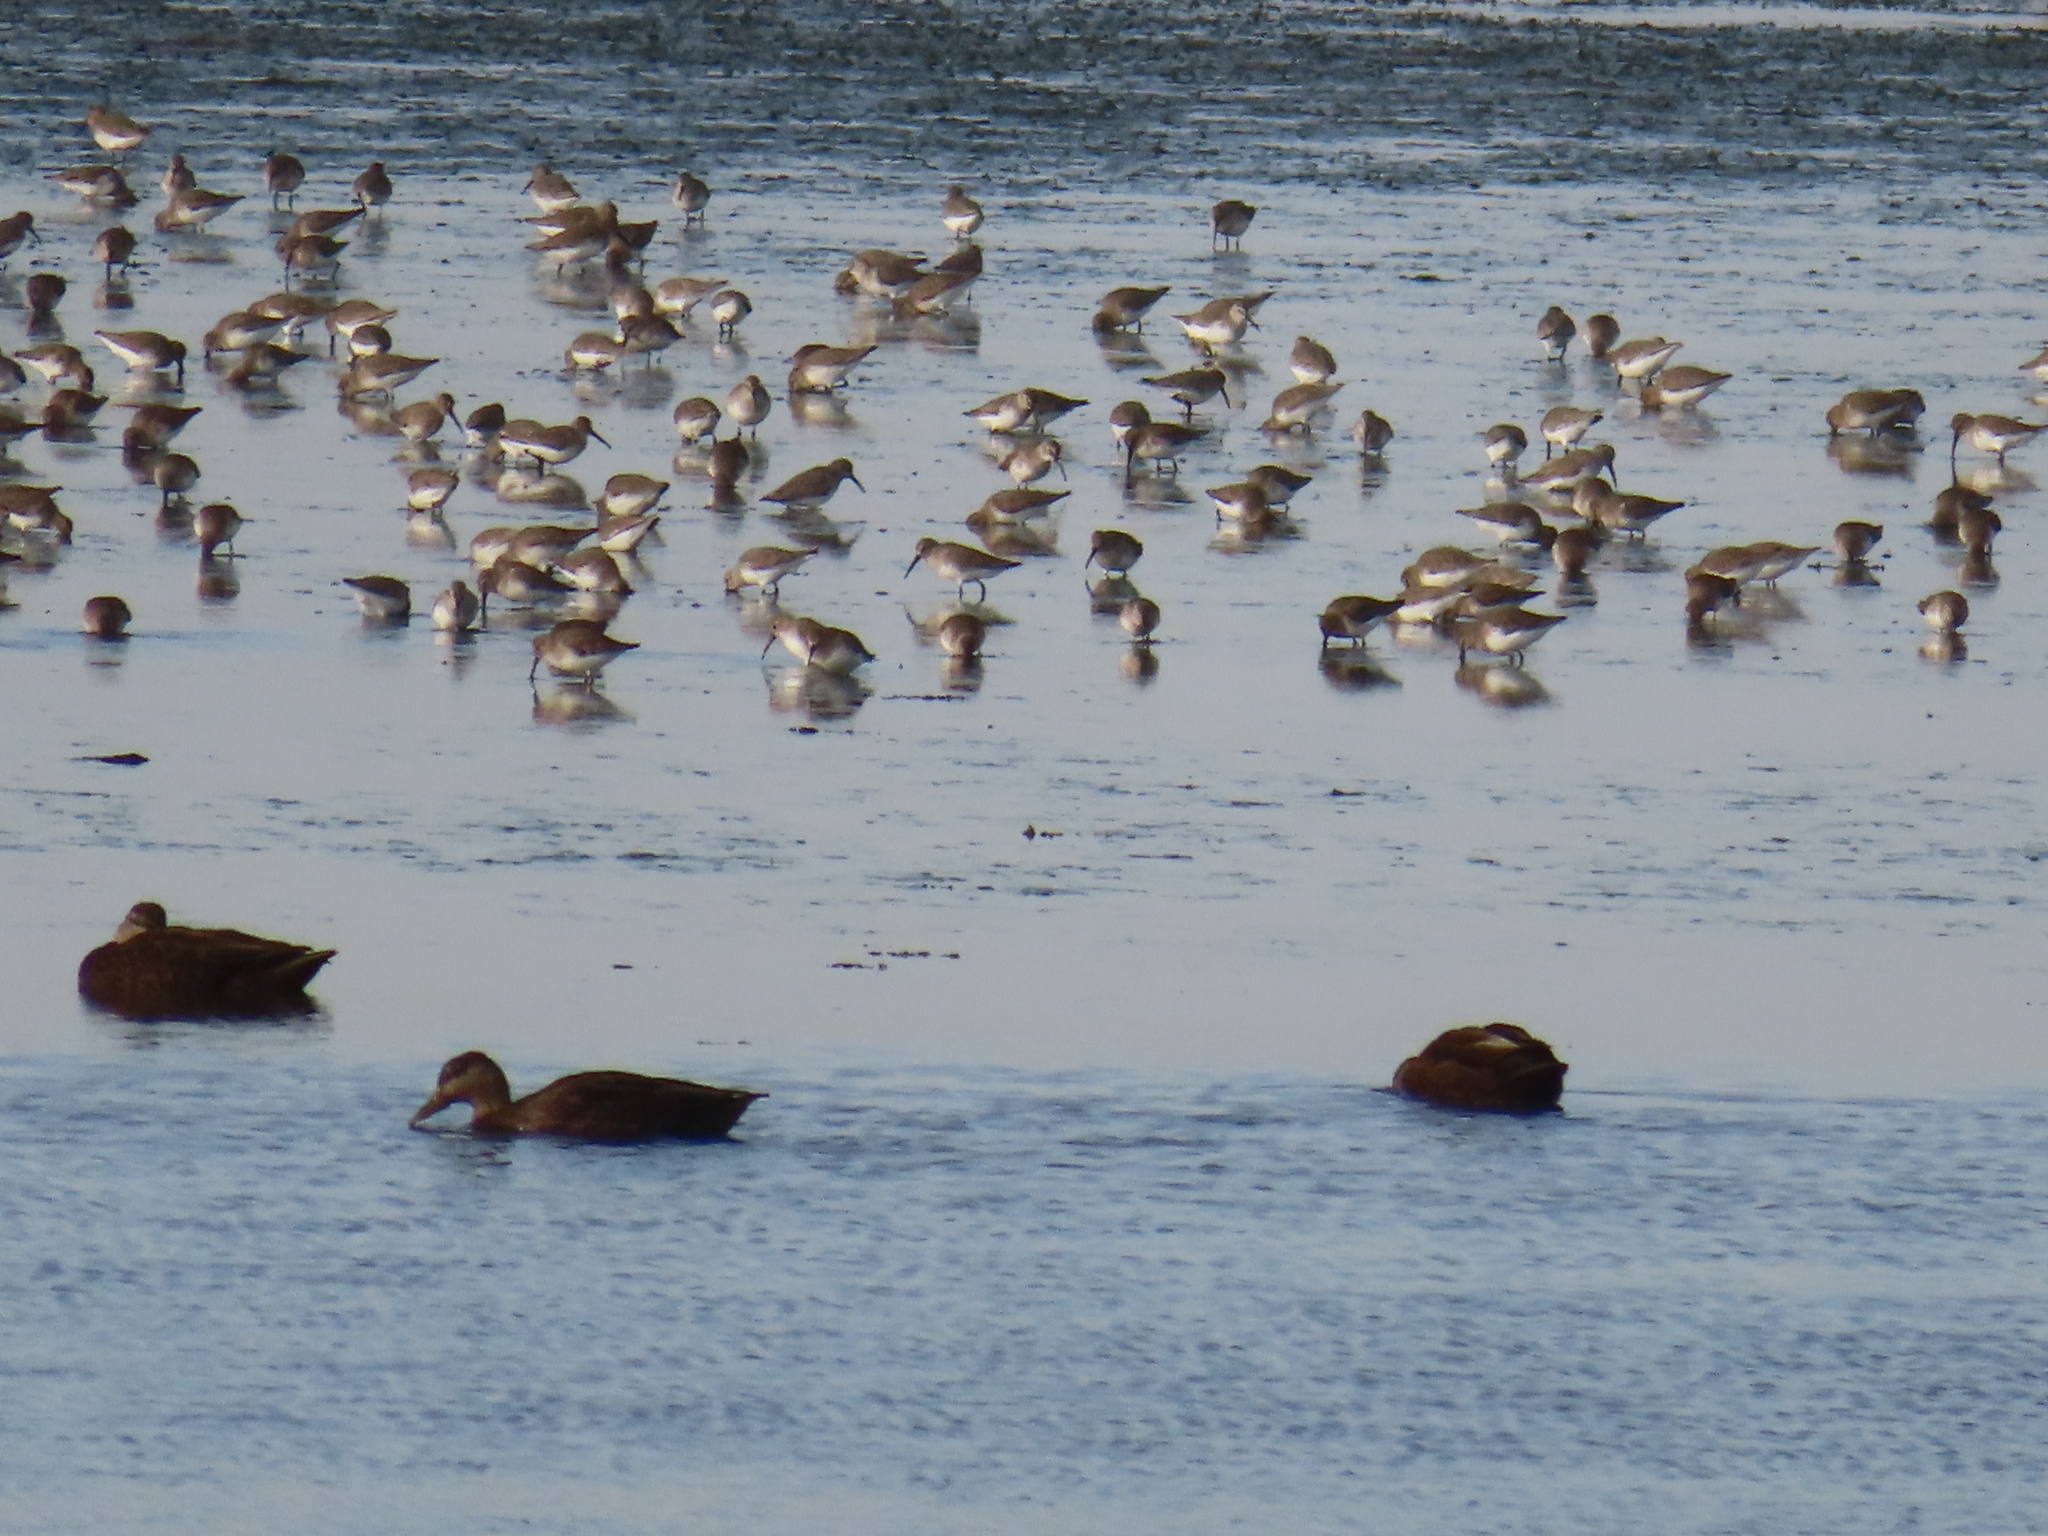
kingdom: Animalia
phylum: Chordata
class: Aves
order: Charadriiformes
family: Scolopacidae
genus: Calidris
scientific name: Calidris alpina
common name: Dunlin
